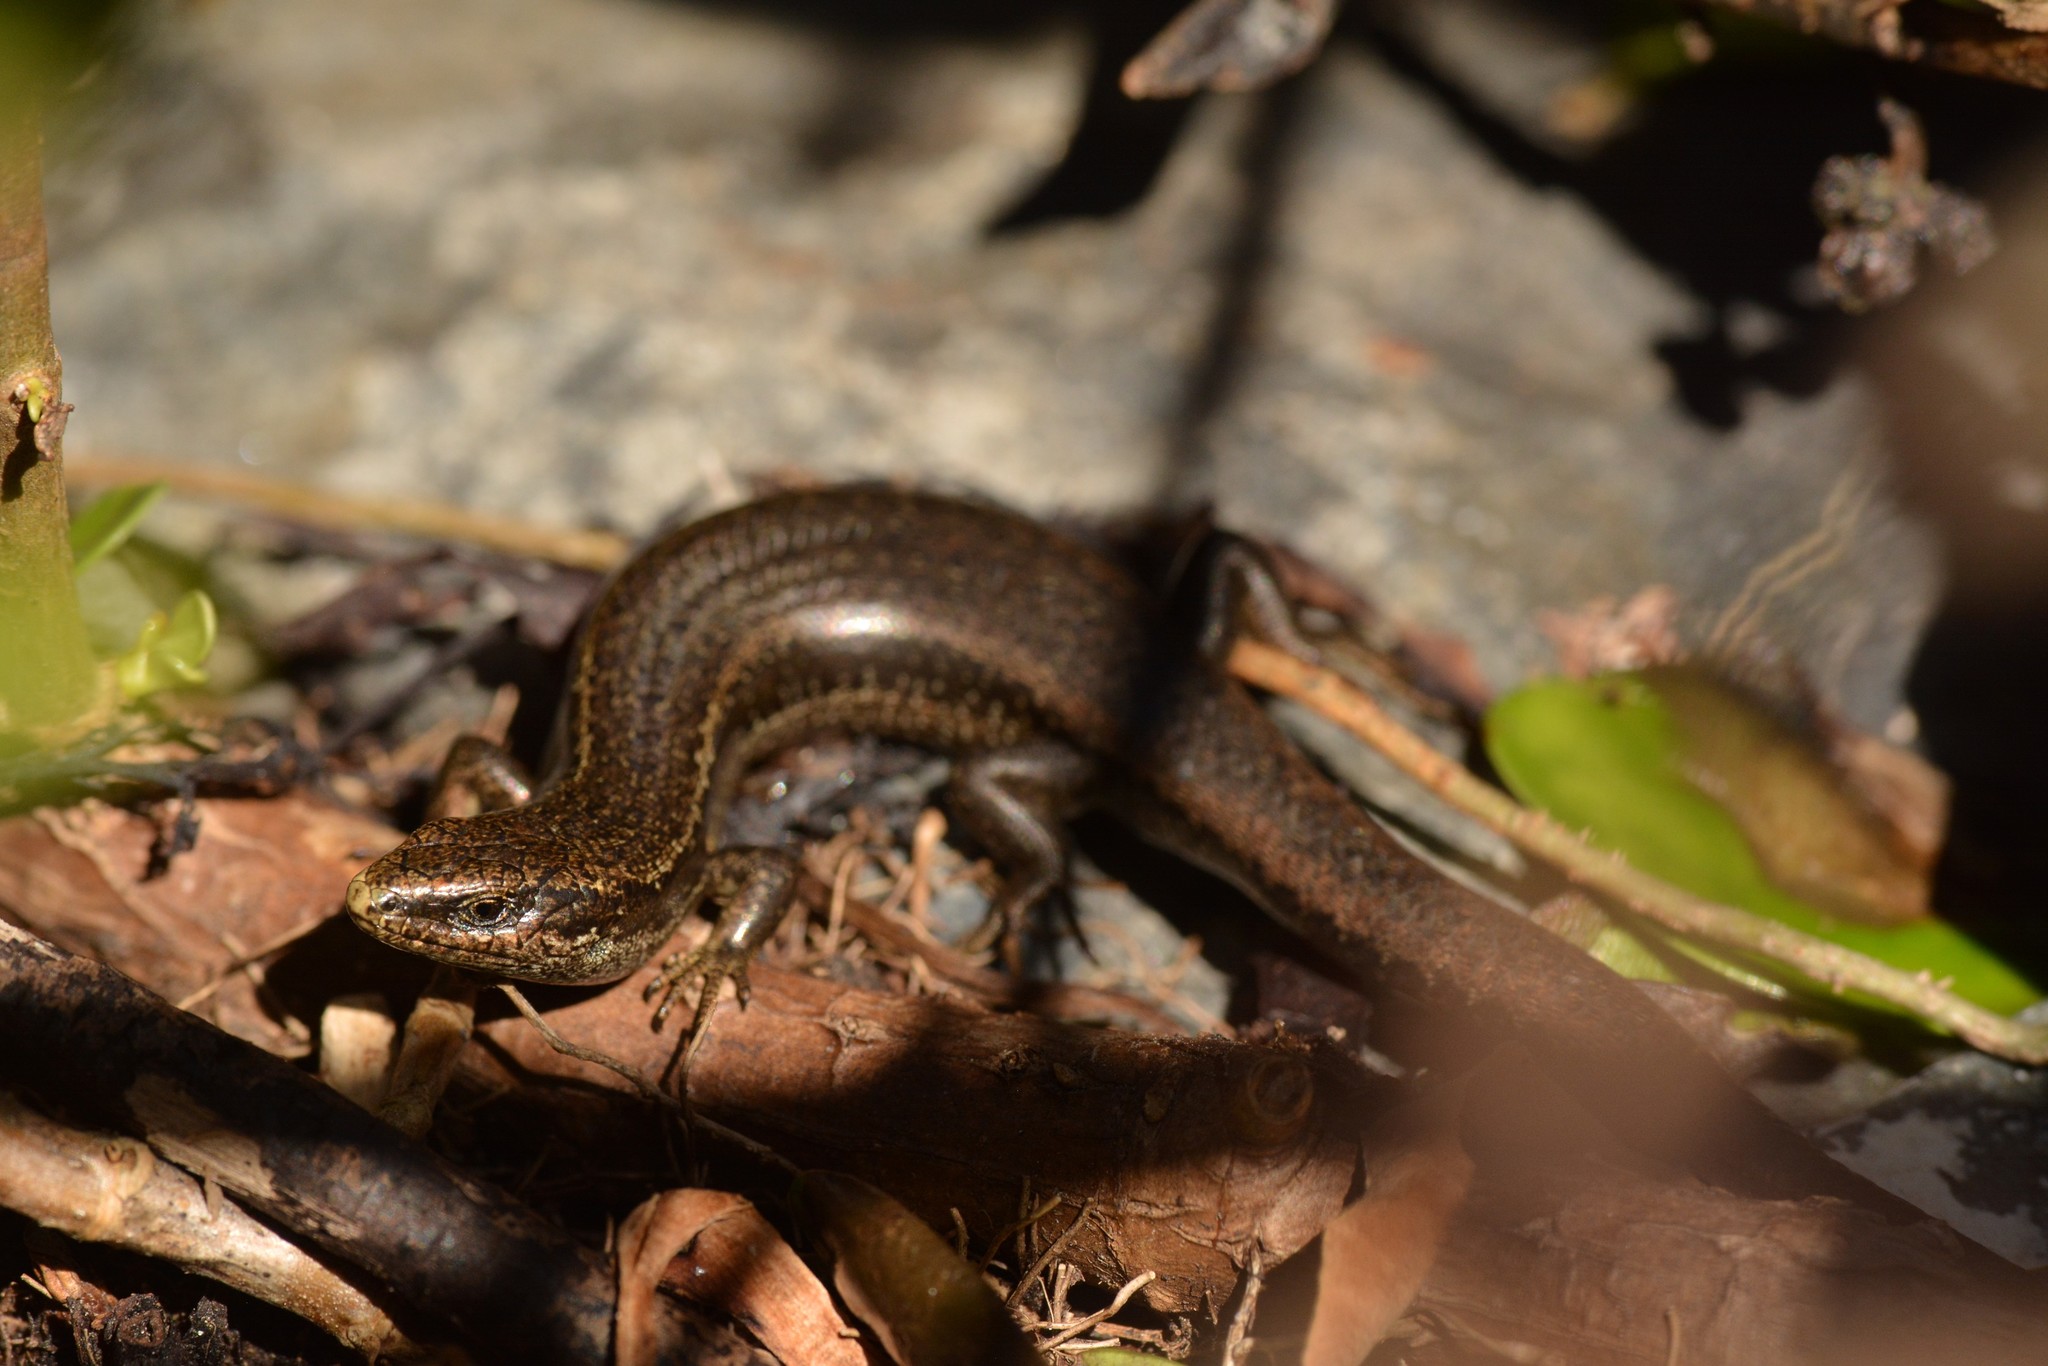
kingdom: Animalia
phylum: Chordata
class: Squamata
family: Scincidae
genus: Oligosoma
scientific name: Oligosoma polychroma
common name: Common new zealand skink
